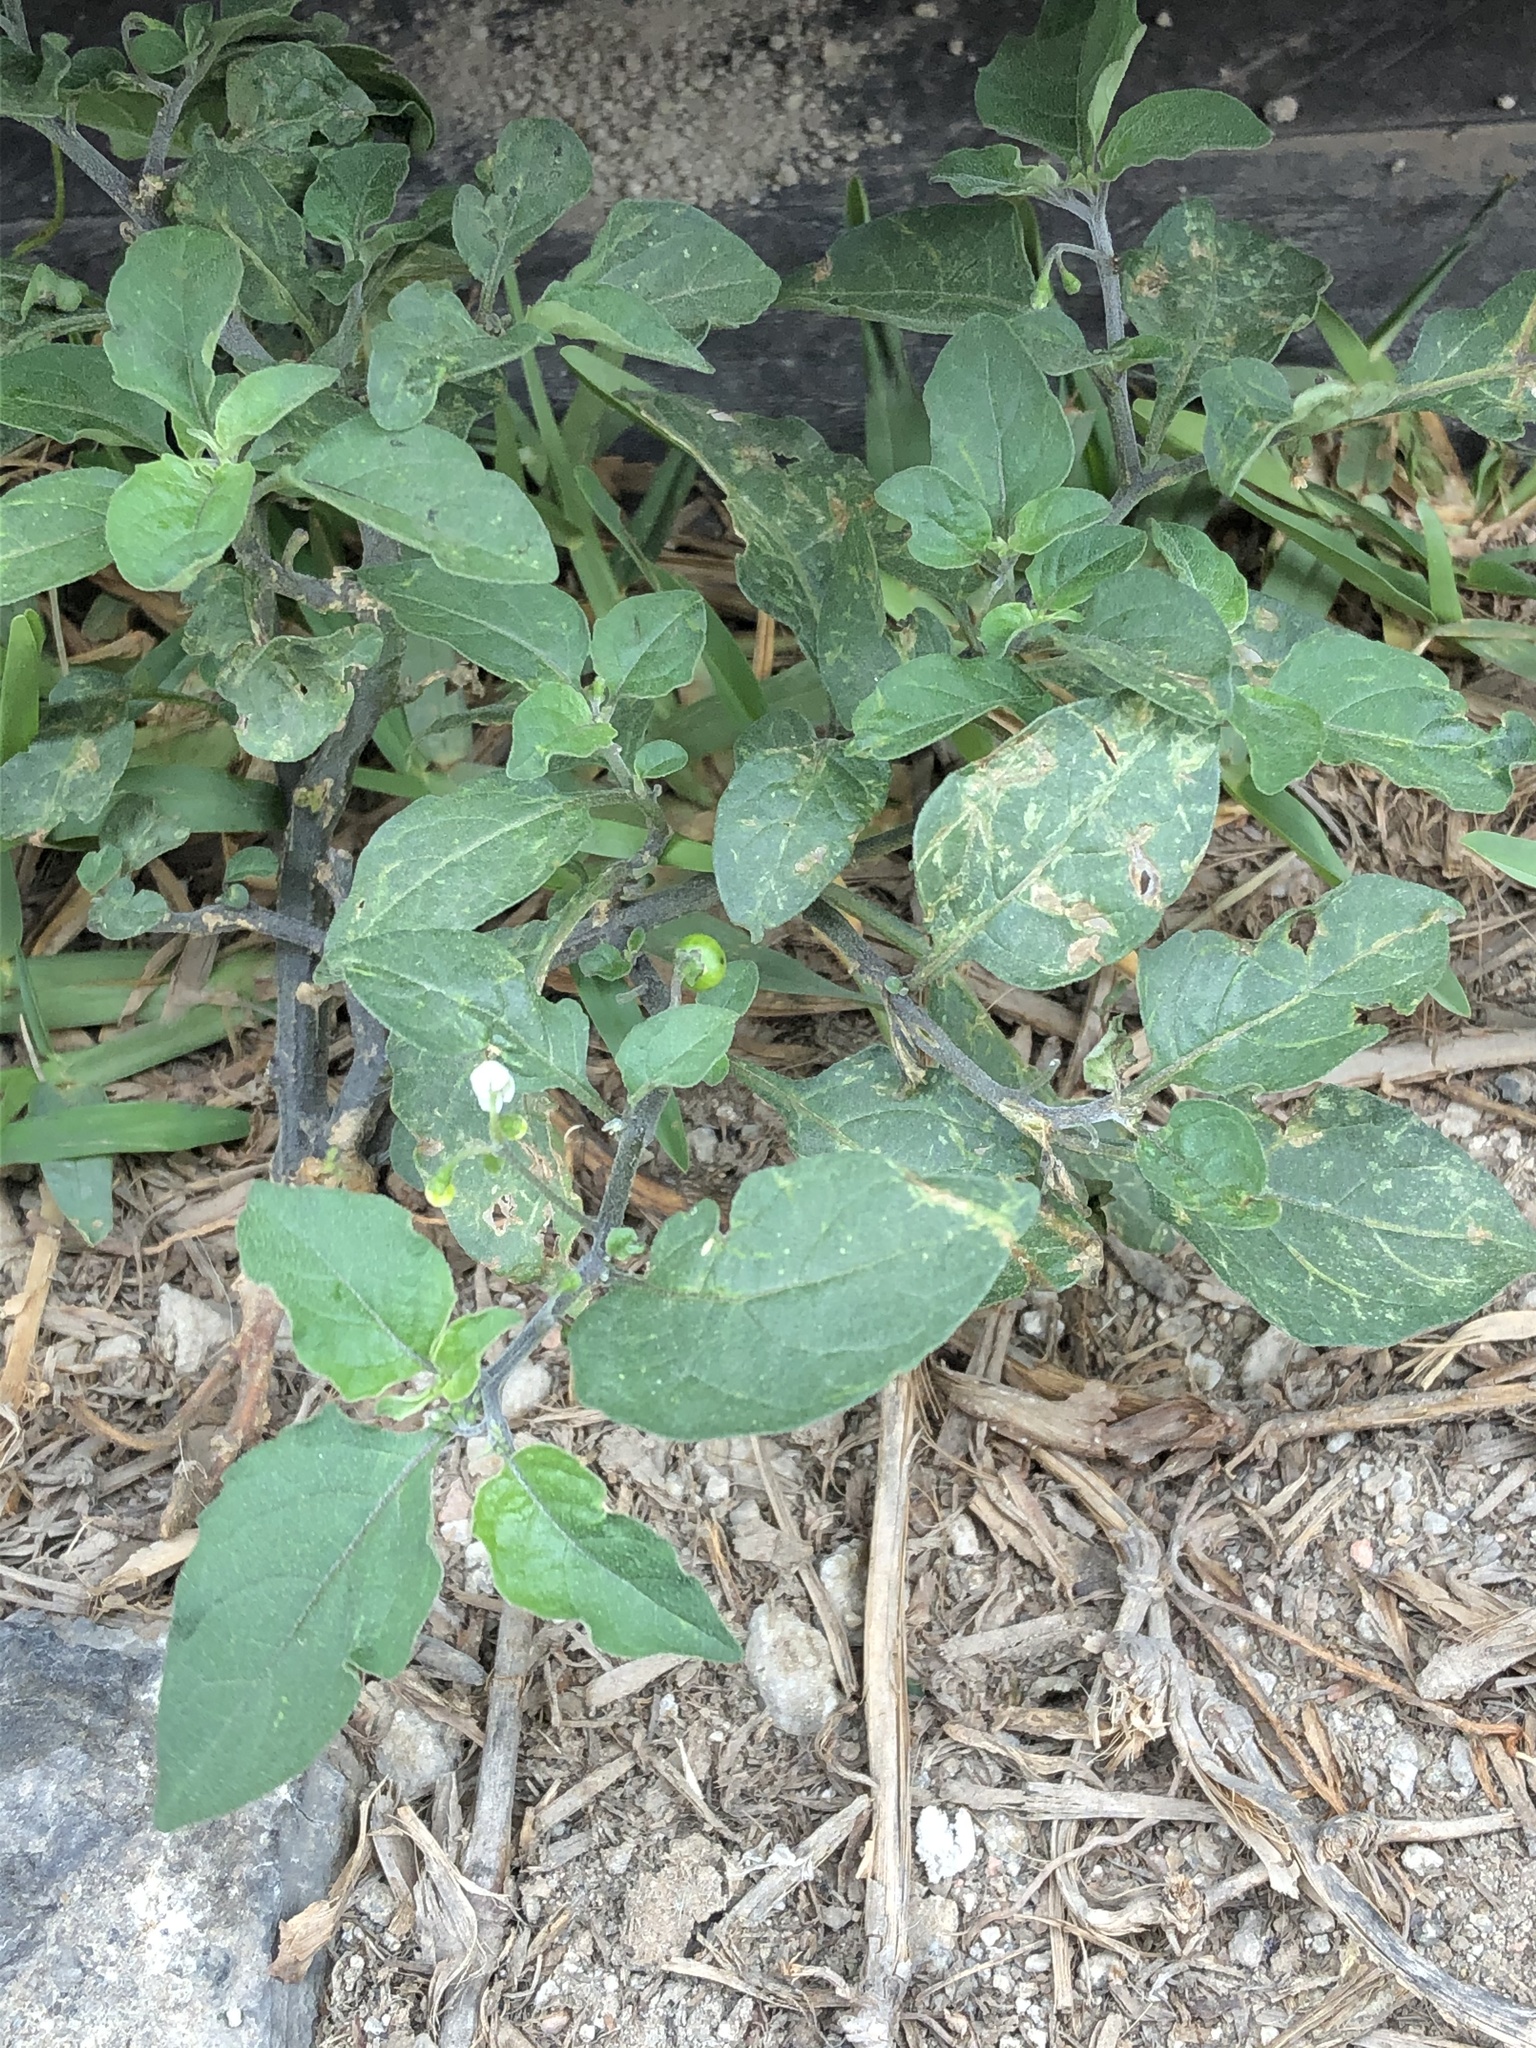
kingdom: Plantae
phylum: Tracheophyta
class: Magnoliopsida
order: Solanales
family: Solanaceae
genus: Solanum
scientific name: Solanum americanum
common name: American black nightshade
